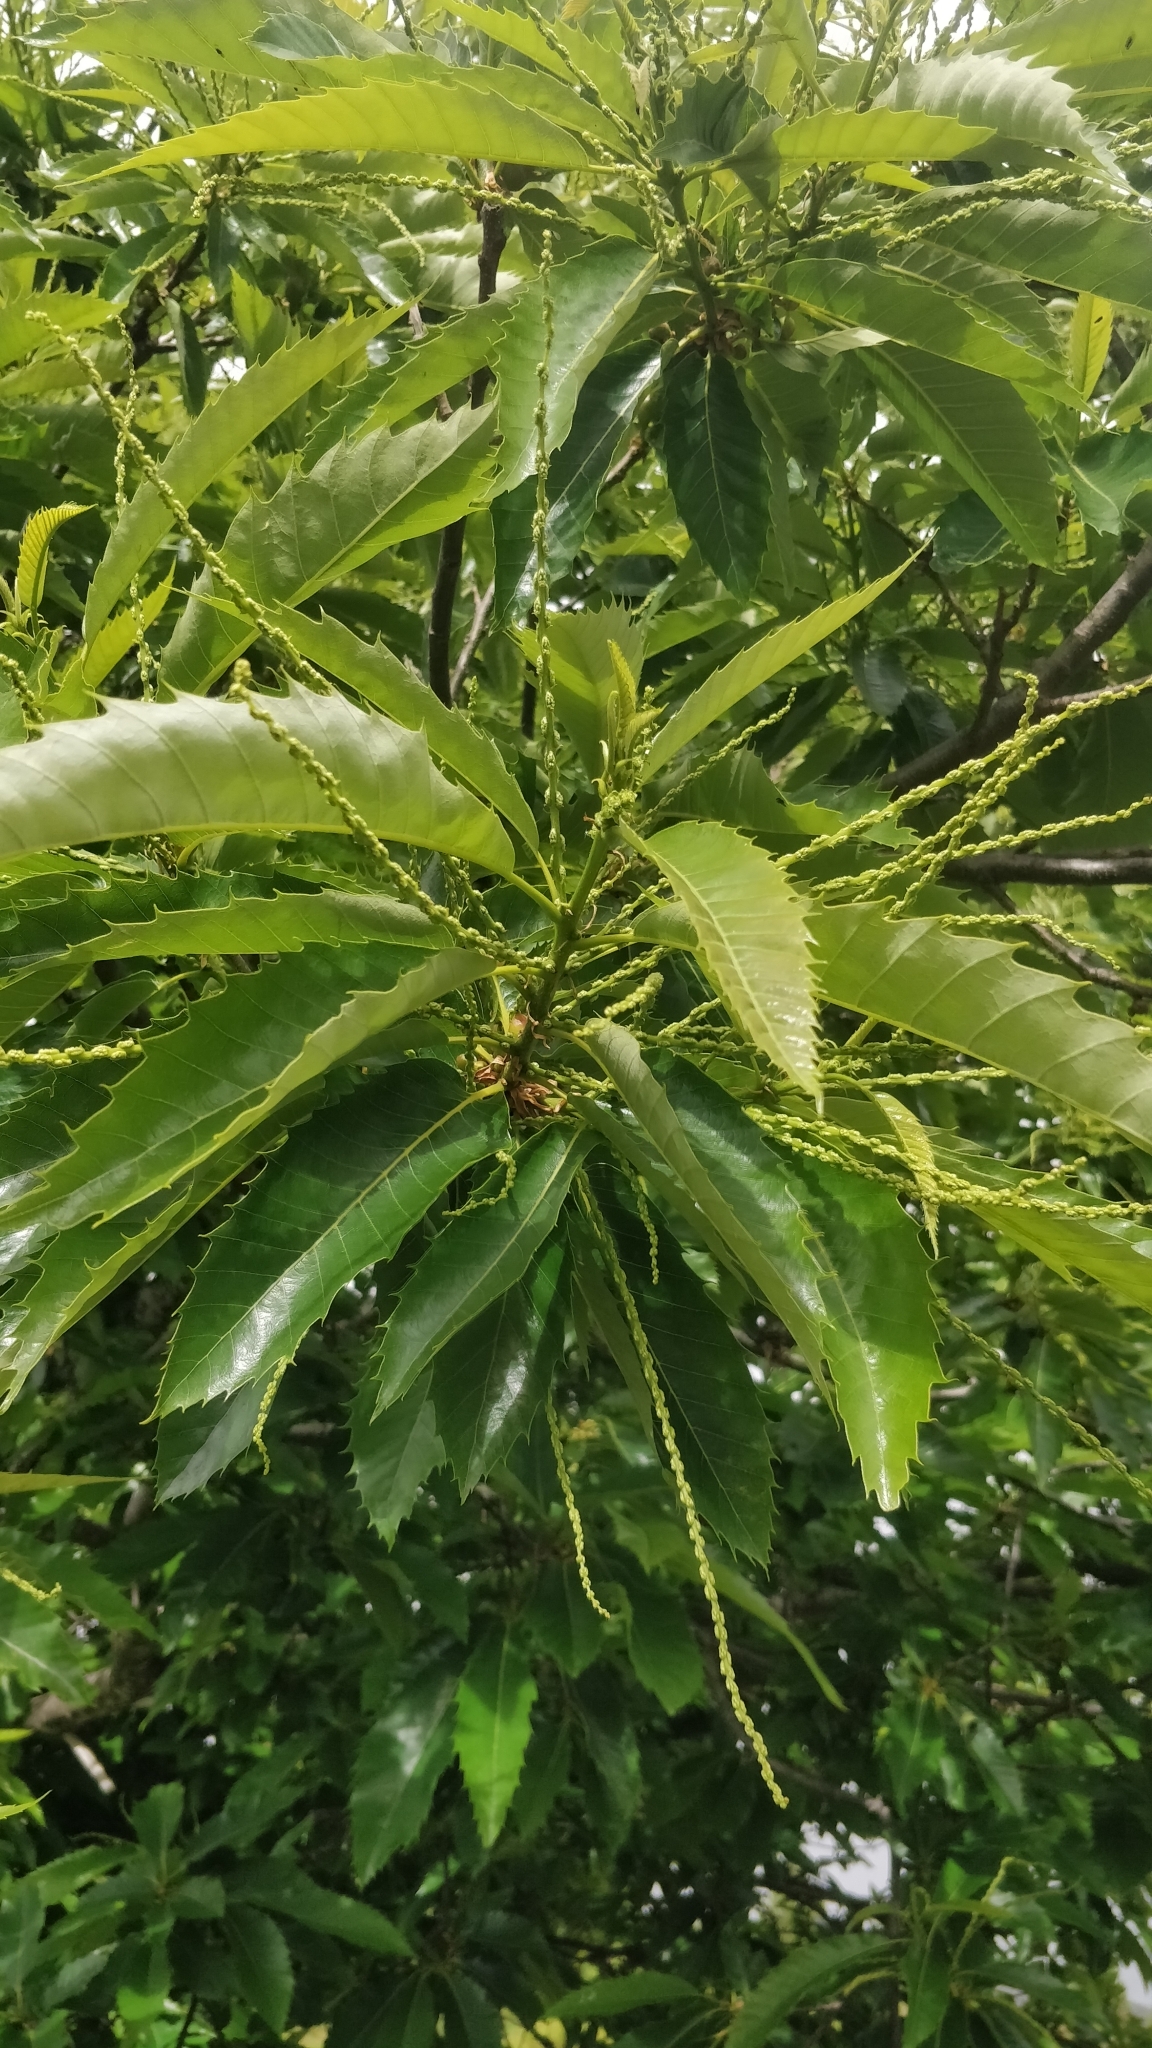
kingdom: Plantae
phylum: Tracheophyta
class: Magnoliopsida
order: Fagales
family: Fagaceae
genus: Castanea
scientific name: Castanea sativa
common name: Sweet chestnut
